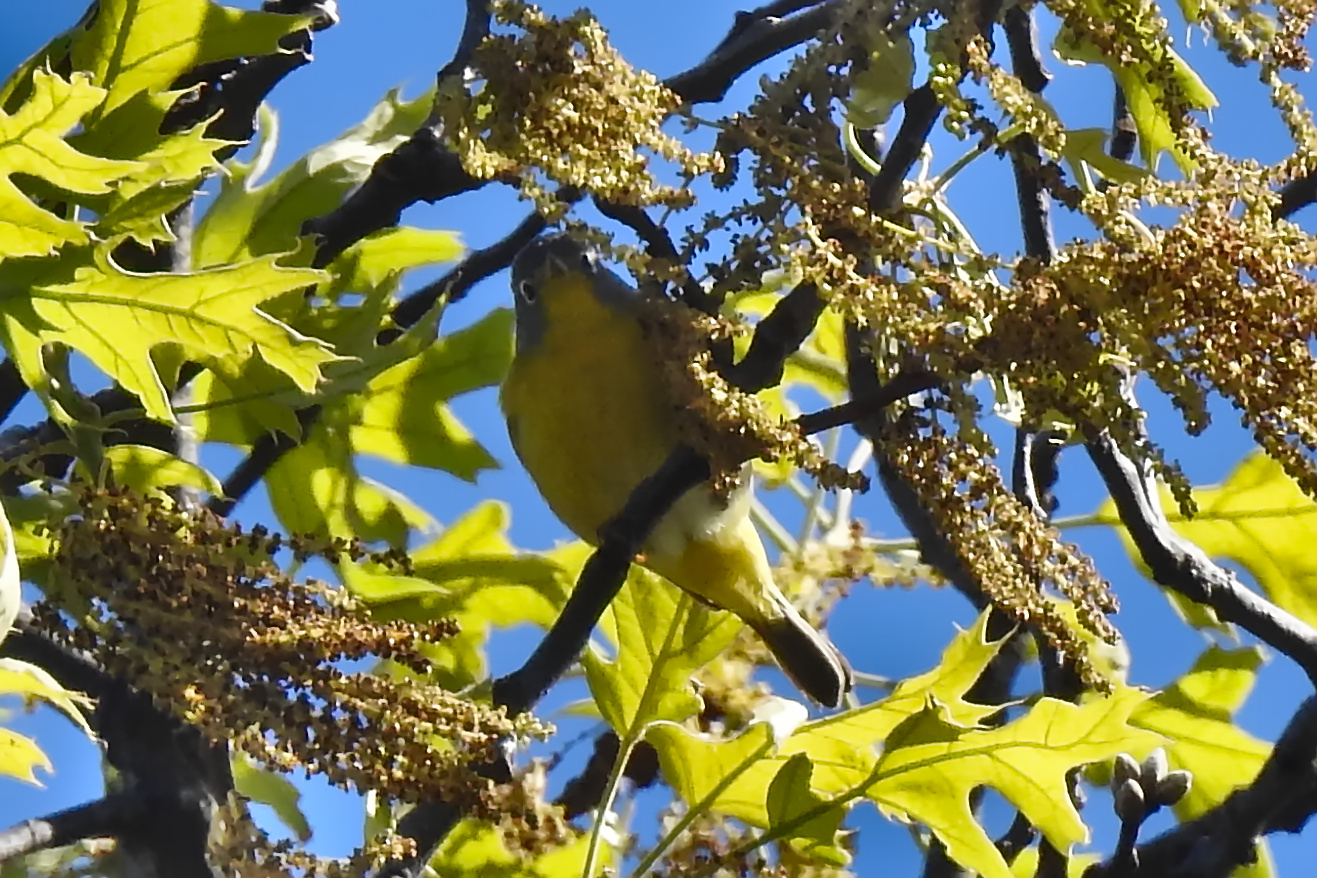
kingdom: Animalia
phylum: Chordata
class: Aves
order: Passeriformes
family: Parulidae
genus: Leiothlypis
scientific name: Leiothlypis ruficapilla
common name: Nashville warbler
